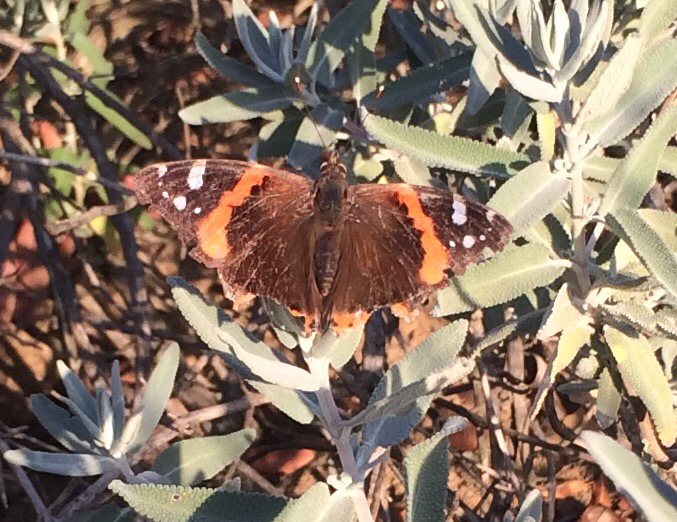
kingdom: Animalia
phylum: Arthropoda
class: Insecta
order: Lepidoptera
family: Nymphalidae
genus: Vanessa
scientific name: Vanessa atalanta
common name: Red admiral
